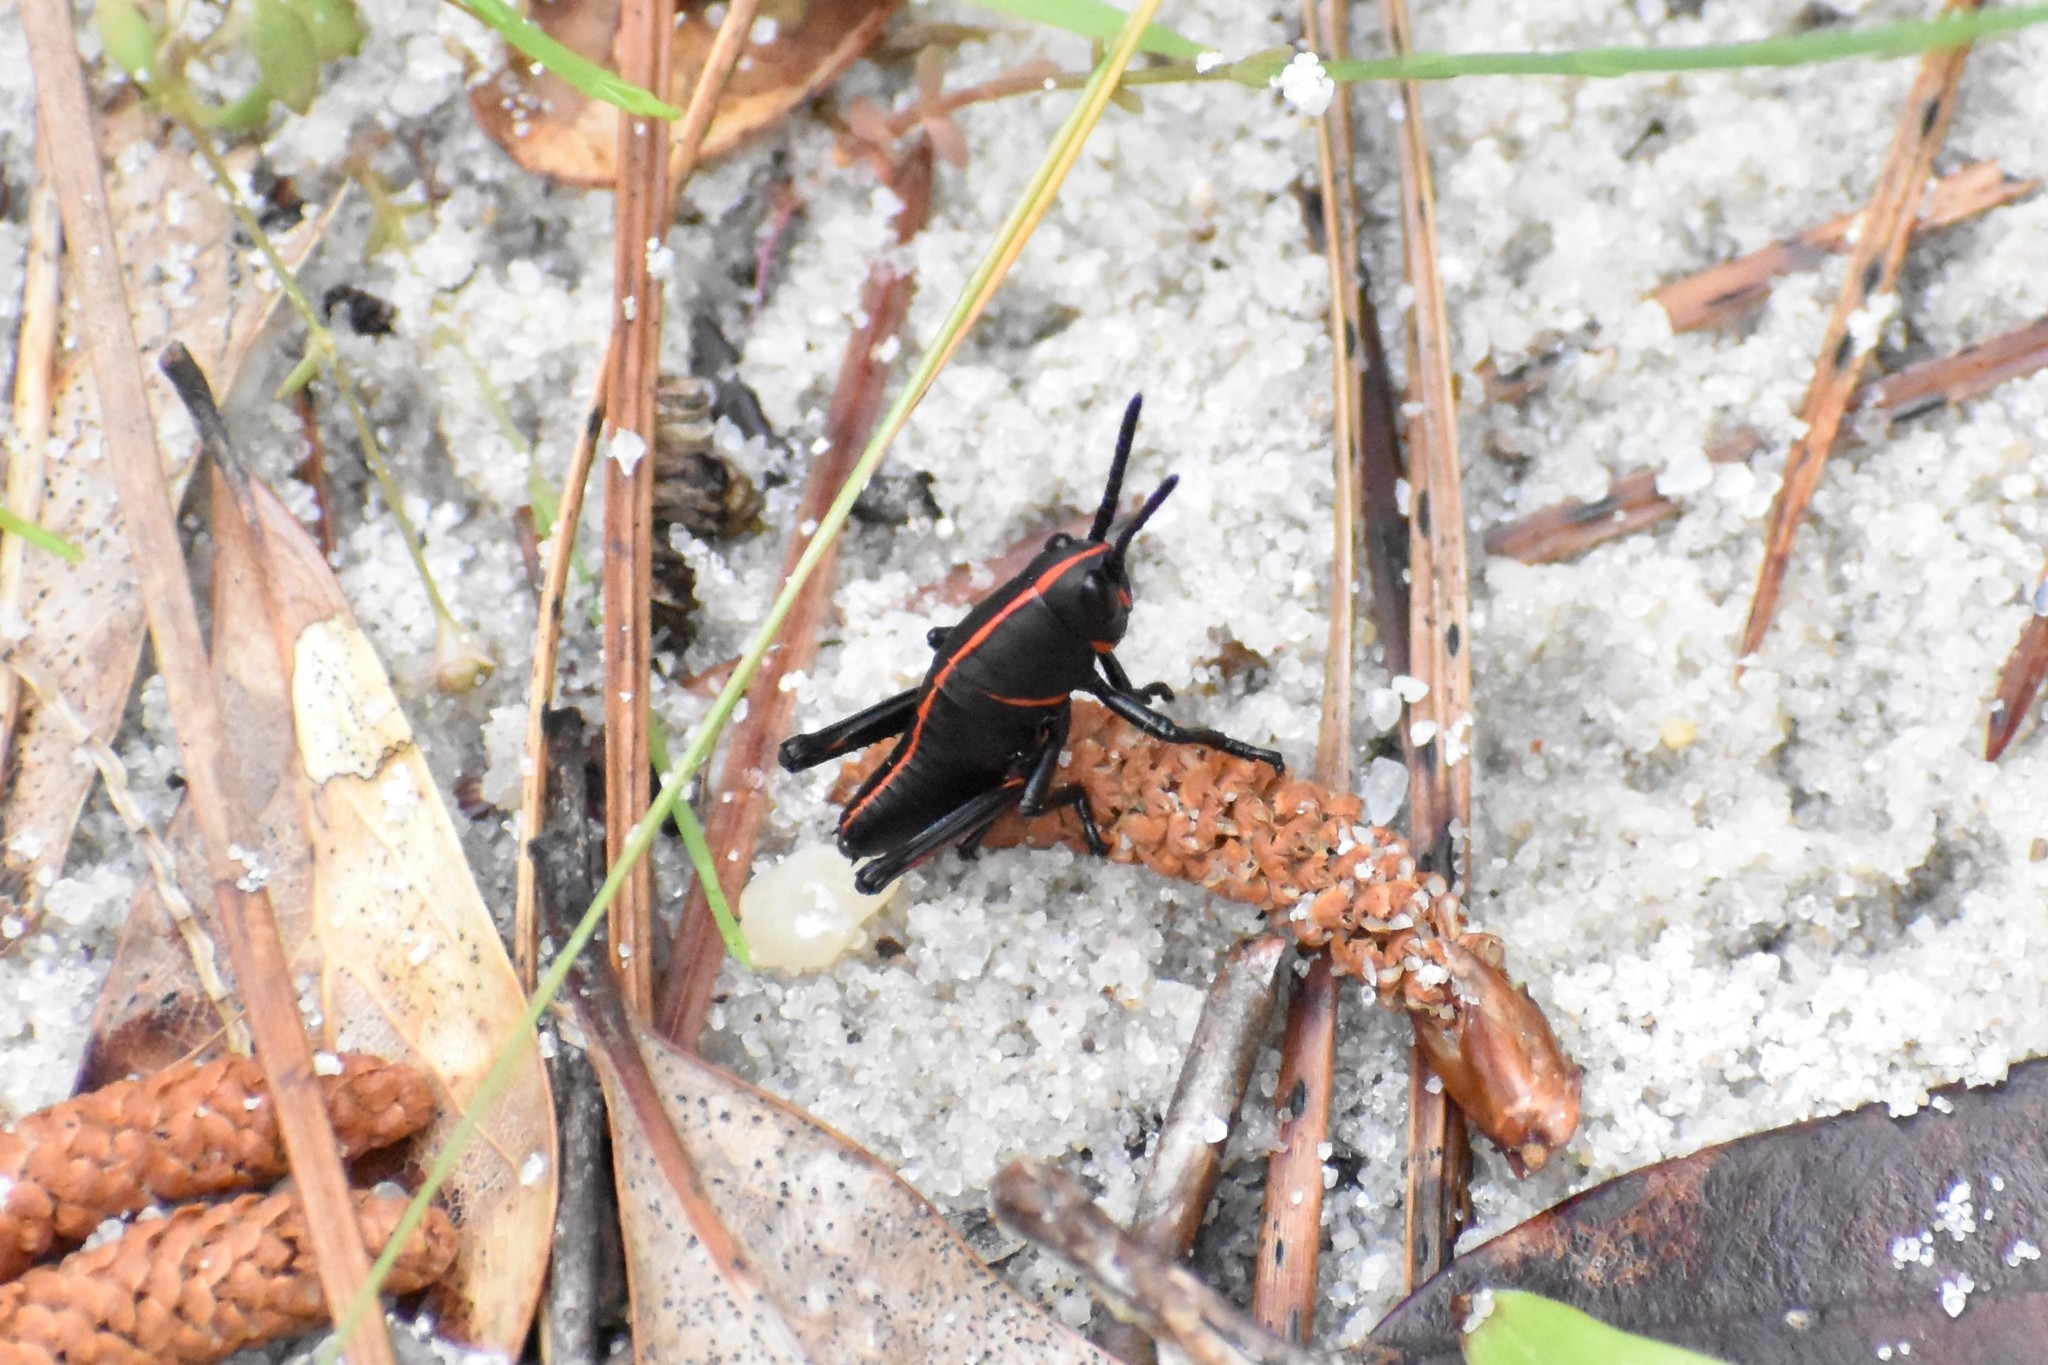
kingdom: Animalia
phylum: Arthropoda
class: Insecta
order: Orthoptera
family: Romaleidae
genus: Romalea
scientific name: Romalea microptera
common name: Eastern lubber grasshopper
